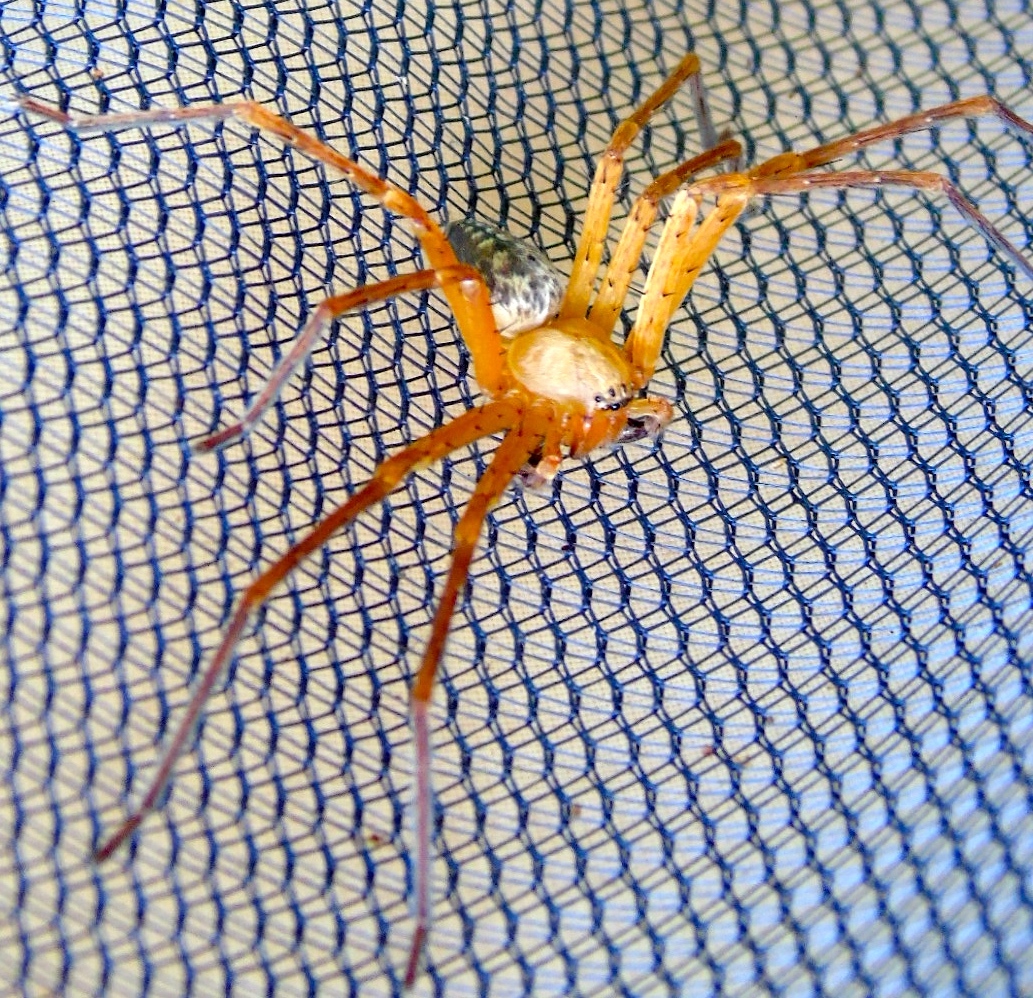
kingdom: Animalia
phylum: Arthropoda
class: Arachnida
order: Araneae
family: Sparassidae
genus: Curicaberis
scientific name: Curicaberis culiacan
